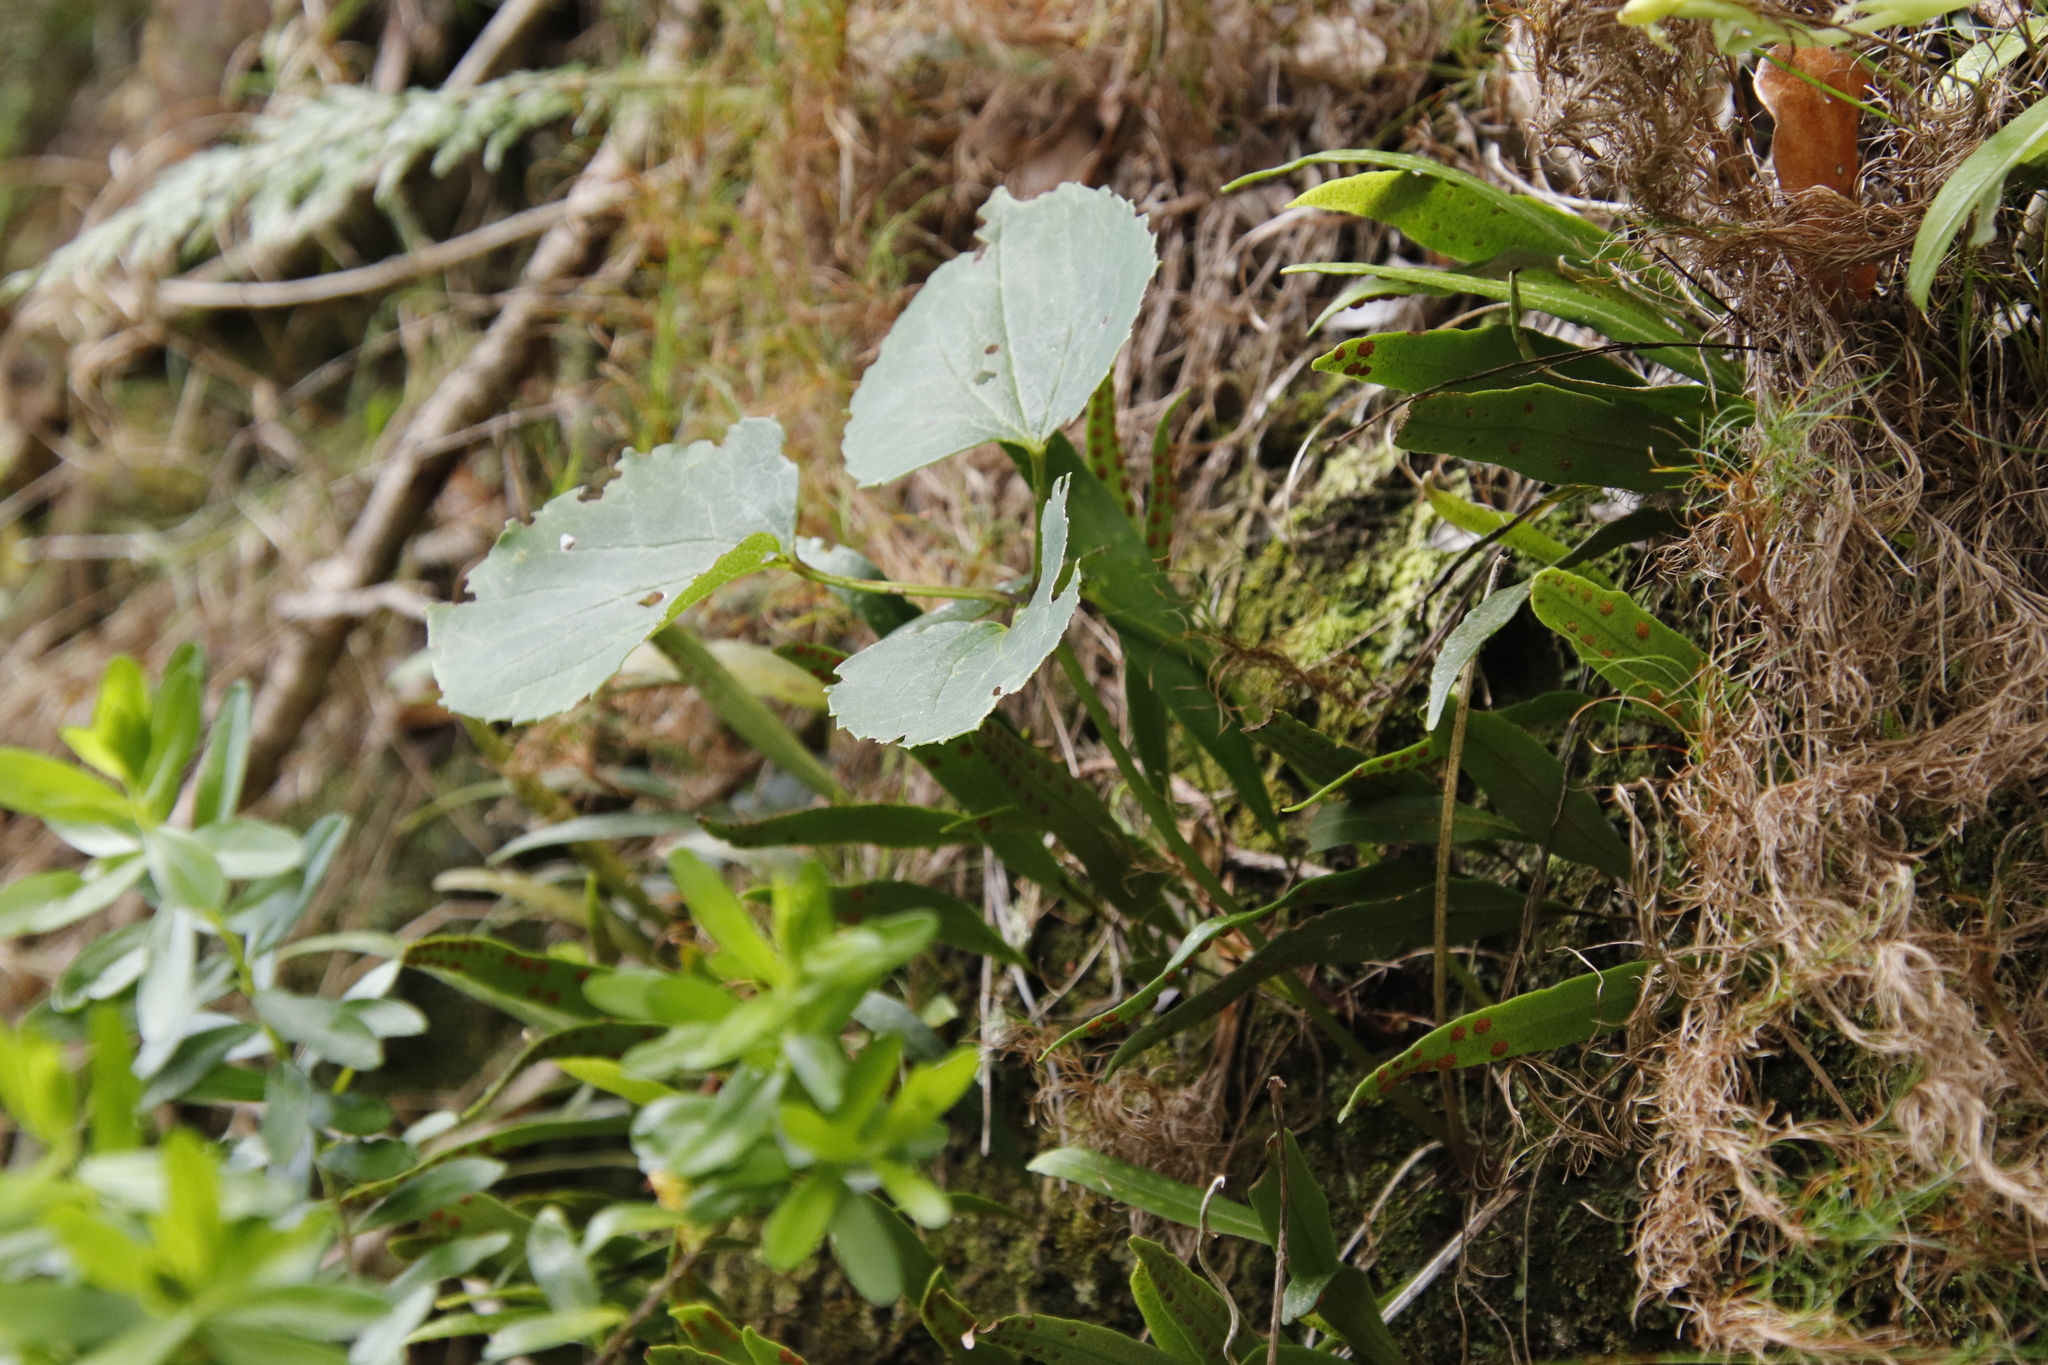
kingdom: Plantae
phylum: Tracheophyta
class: Magnoliopsida
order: Ranunculales
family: Ranunculaceae
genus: Knowltonia
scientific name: Knowltonia vesicatoria
